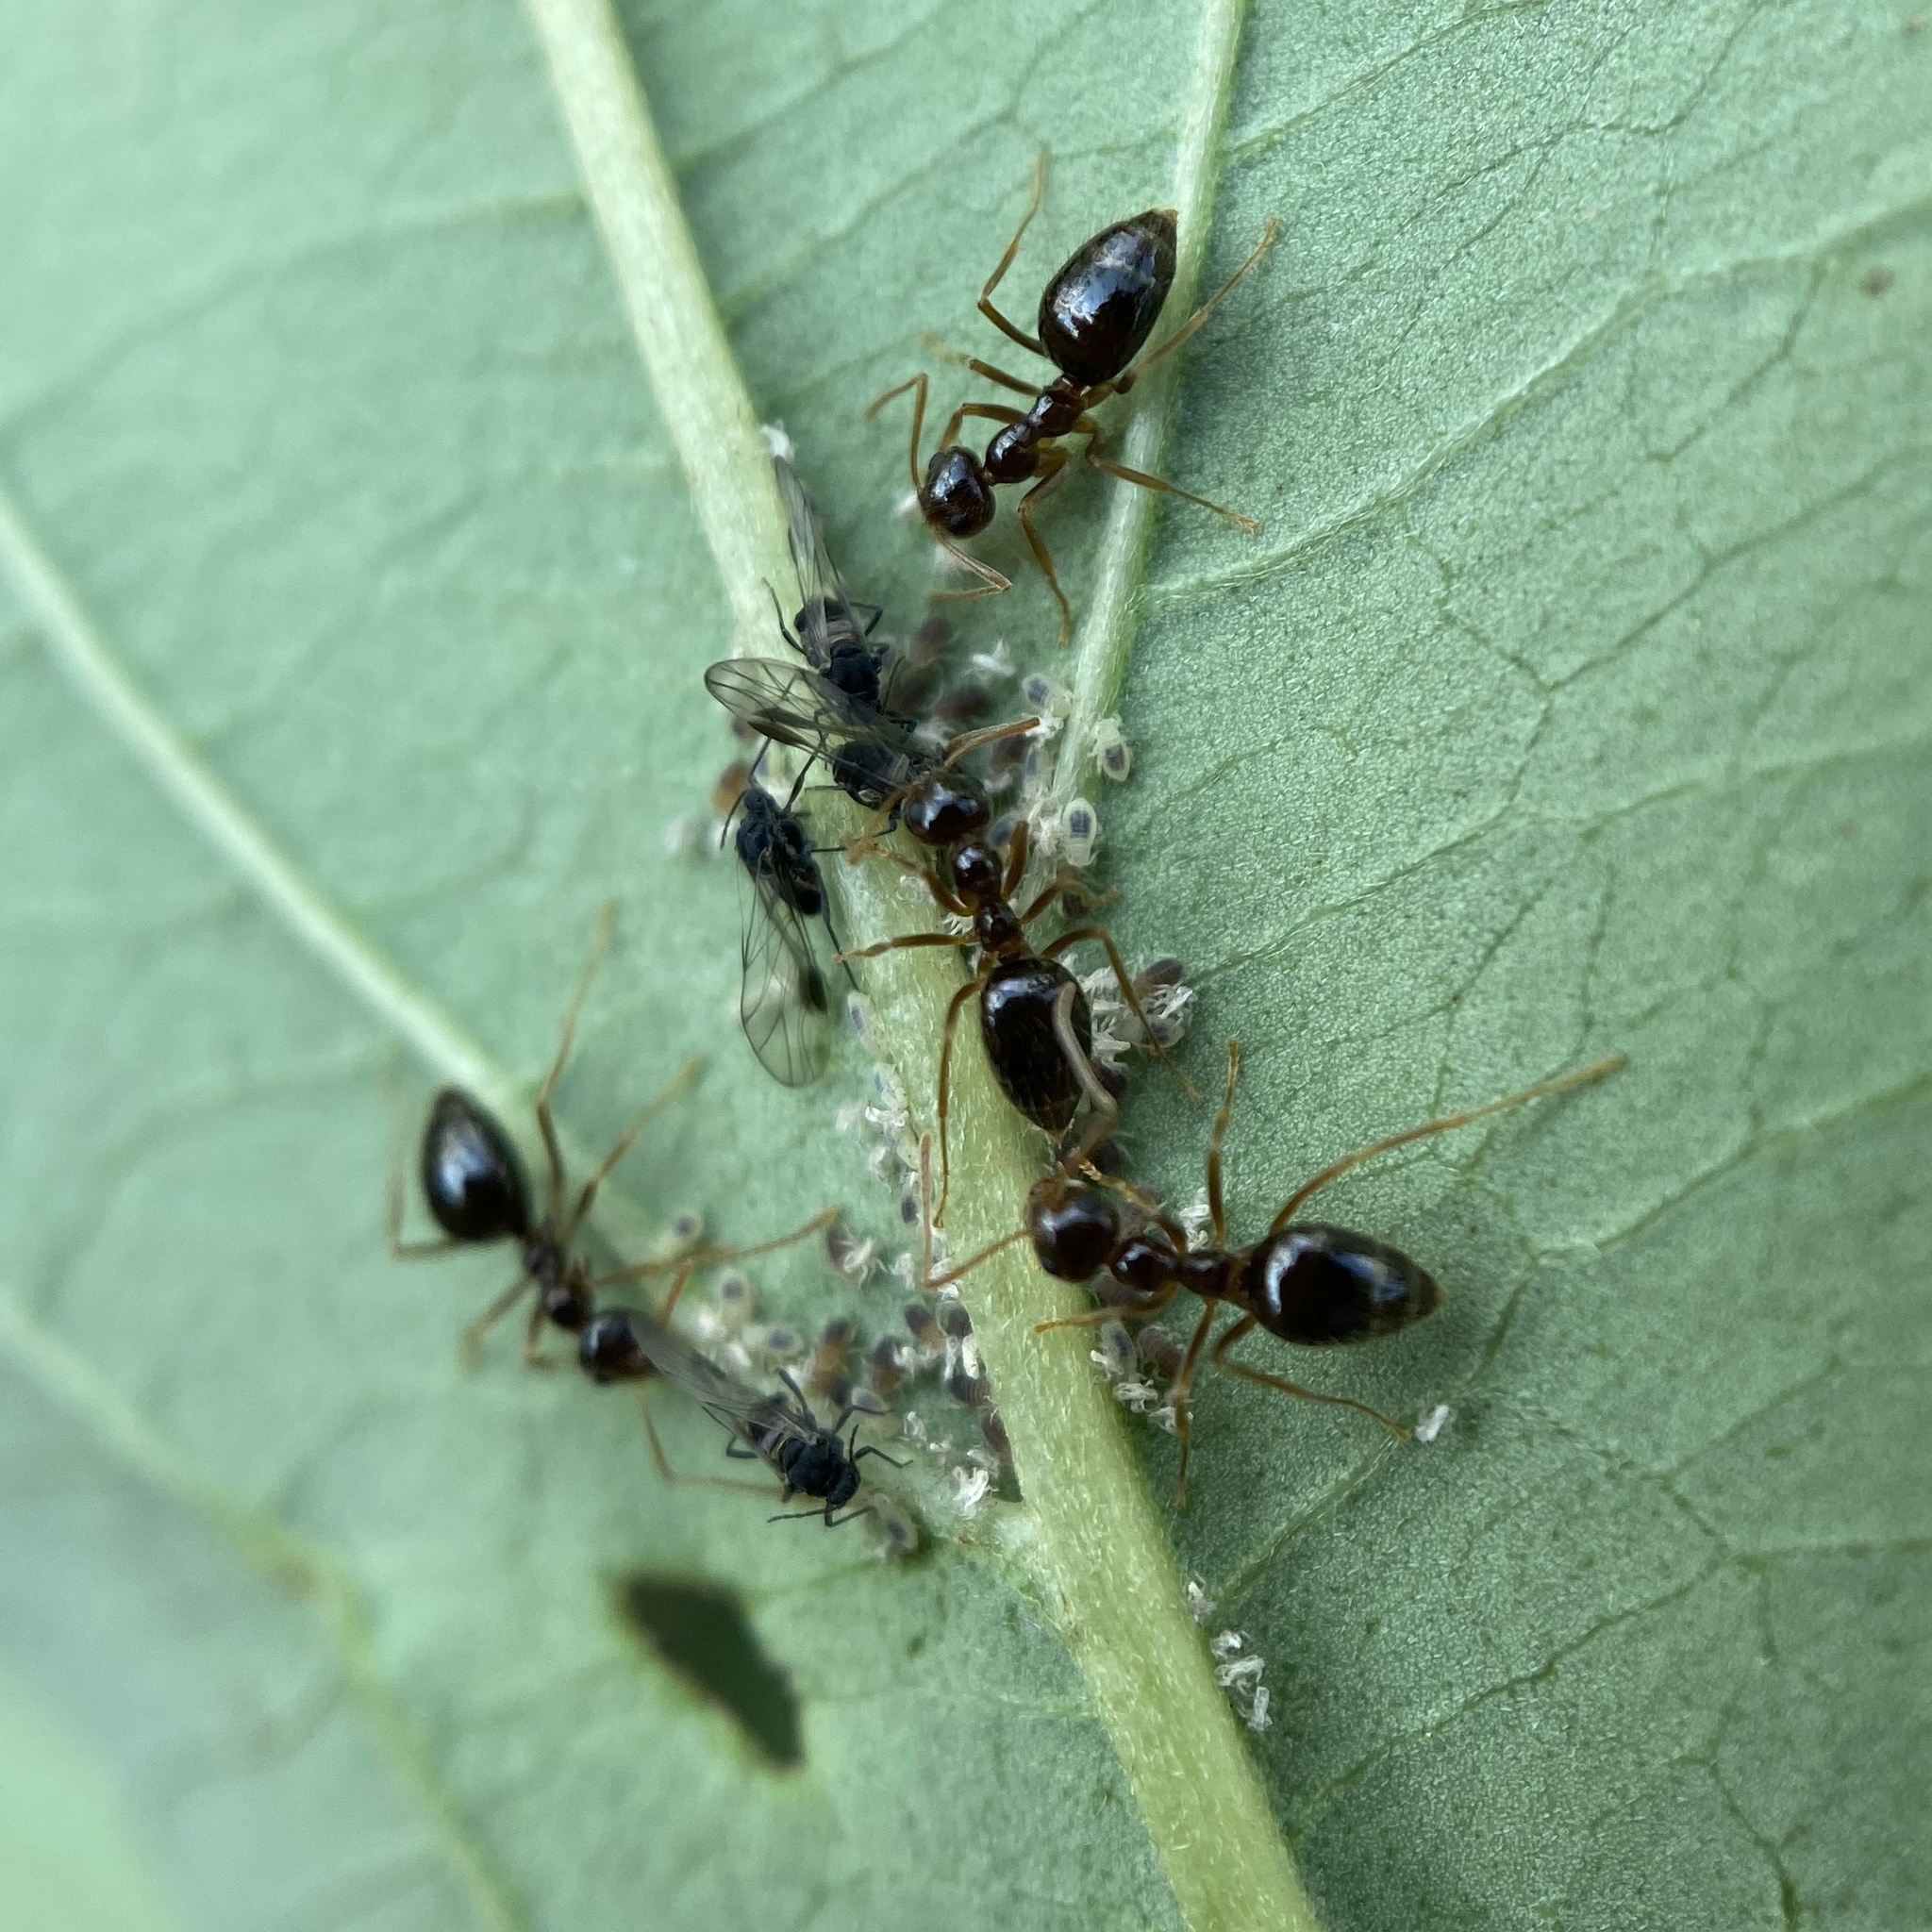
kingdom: Animalia
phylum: Arthropoda
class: Insecta
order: Hymenoptera
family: Formicidae
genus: Prenolepis
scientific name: Prenolepis imparis
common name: Small honey ant
